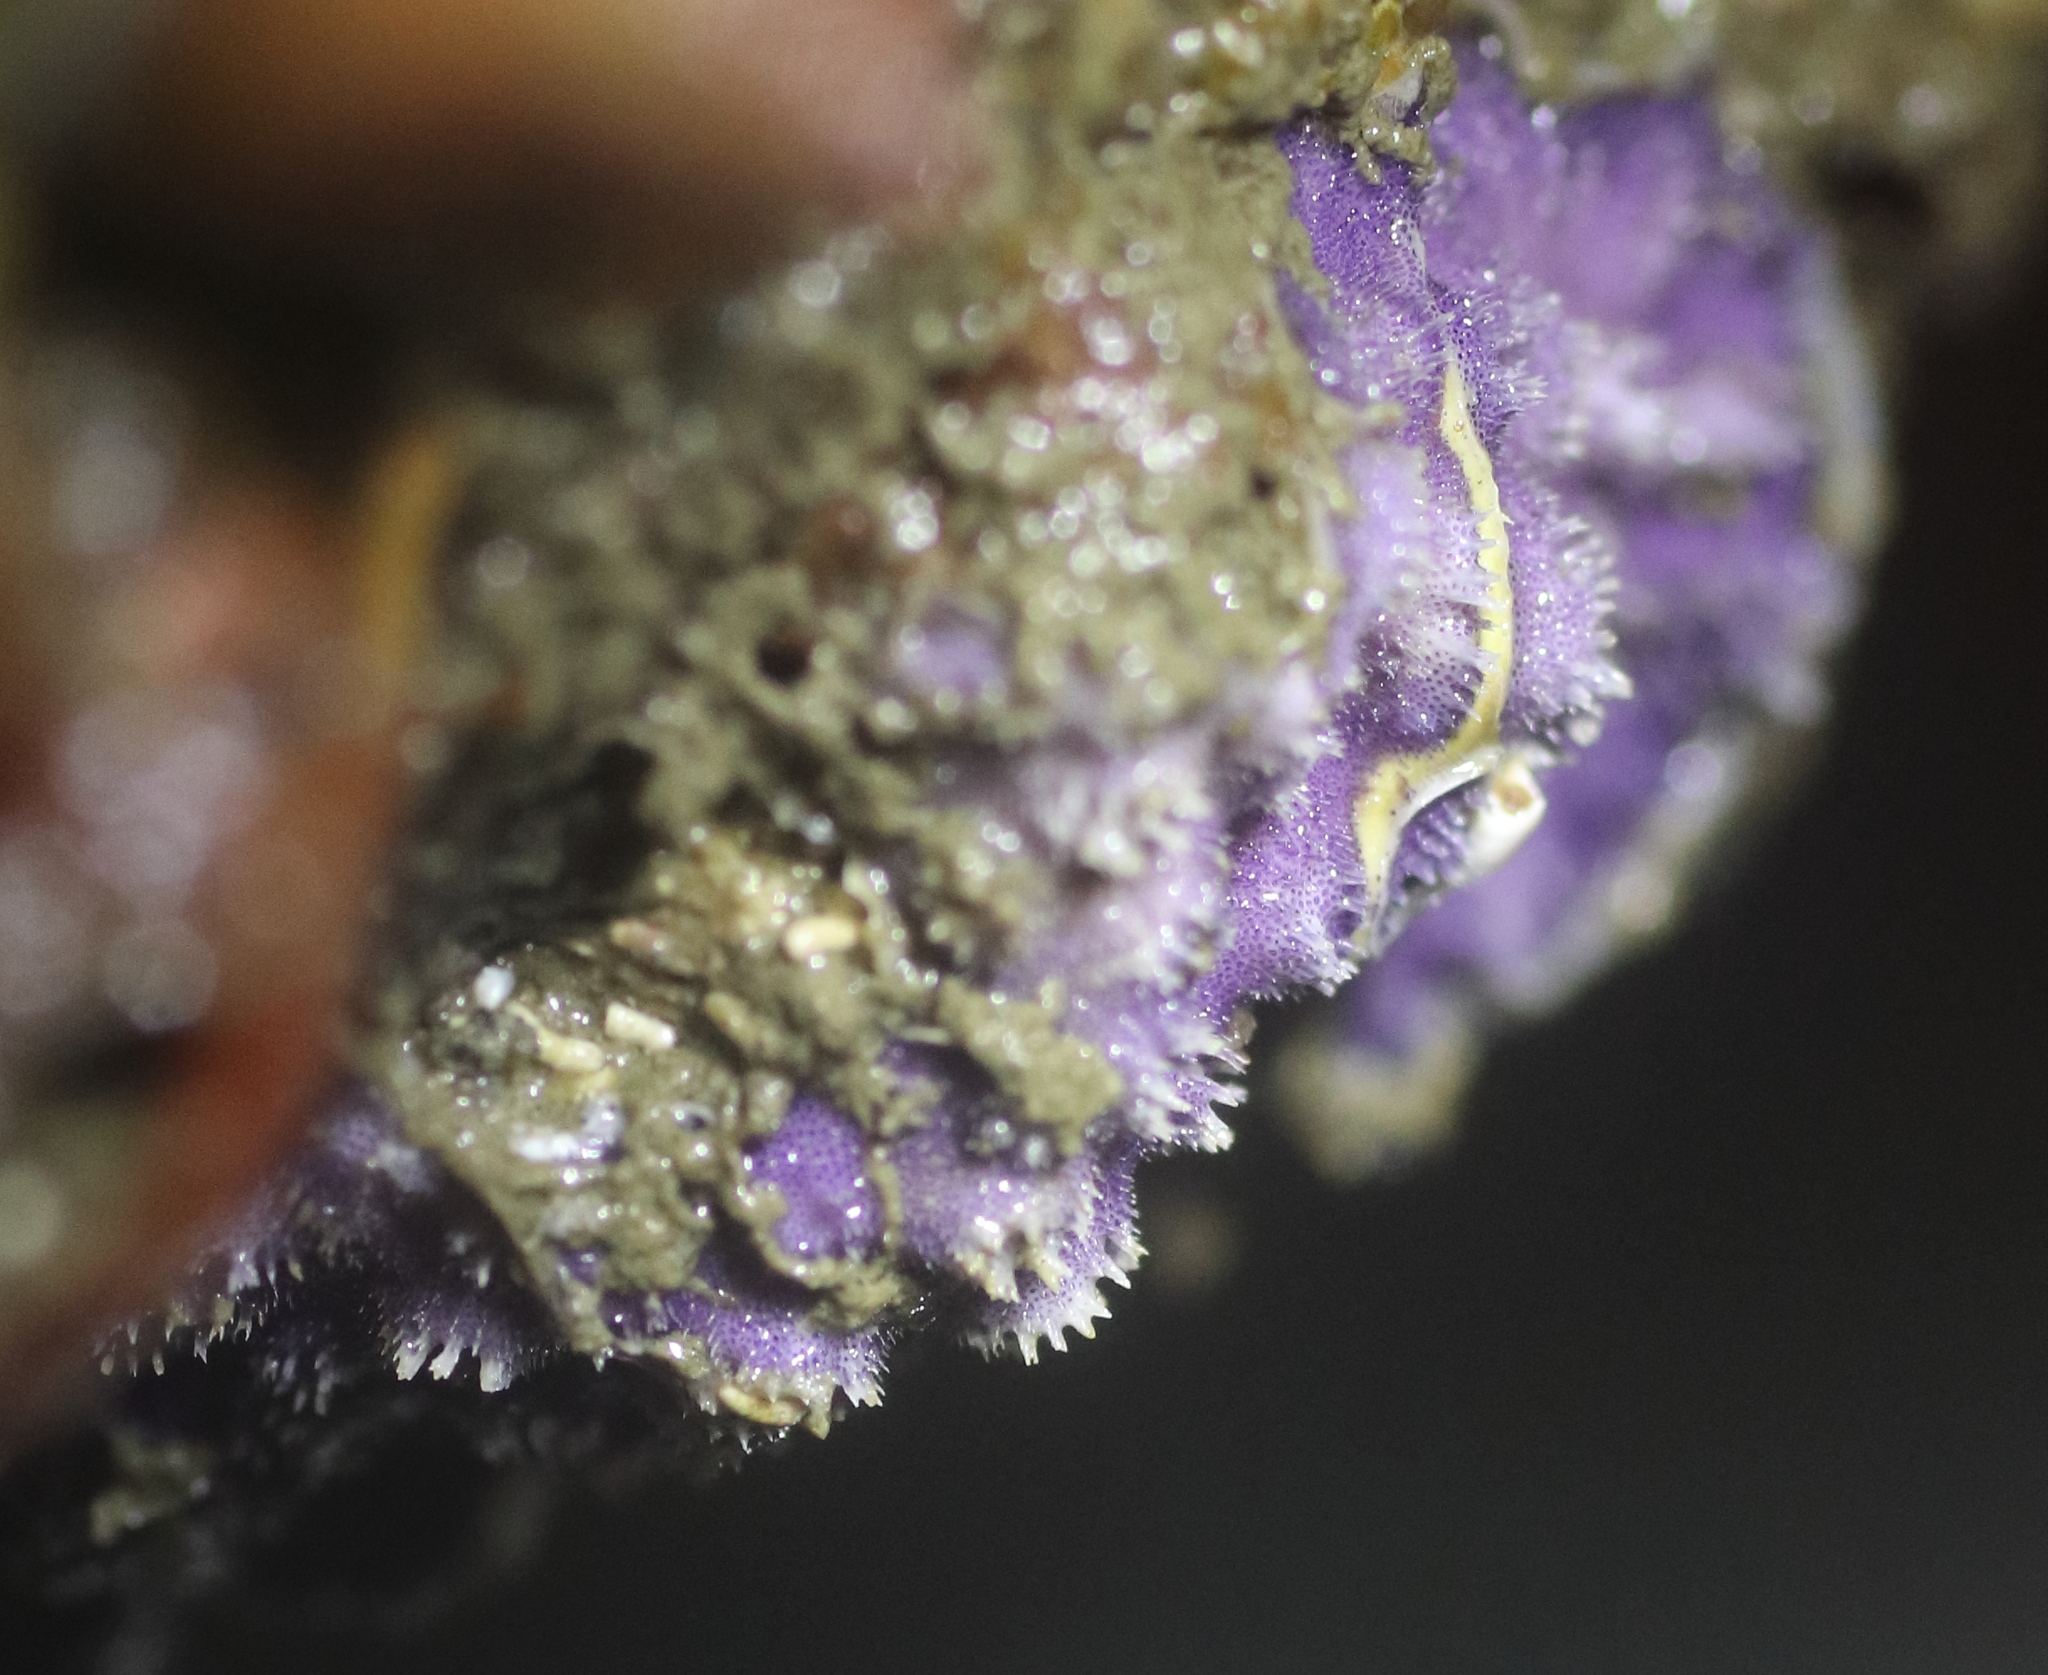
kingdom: Animalia
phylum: Bryozoa
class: Stenolaemata
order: Cyclostomatida
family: Lichenoporidae
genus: Disporella
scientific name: Disporella separata
